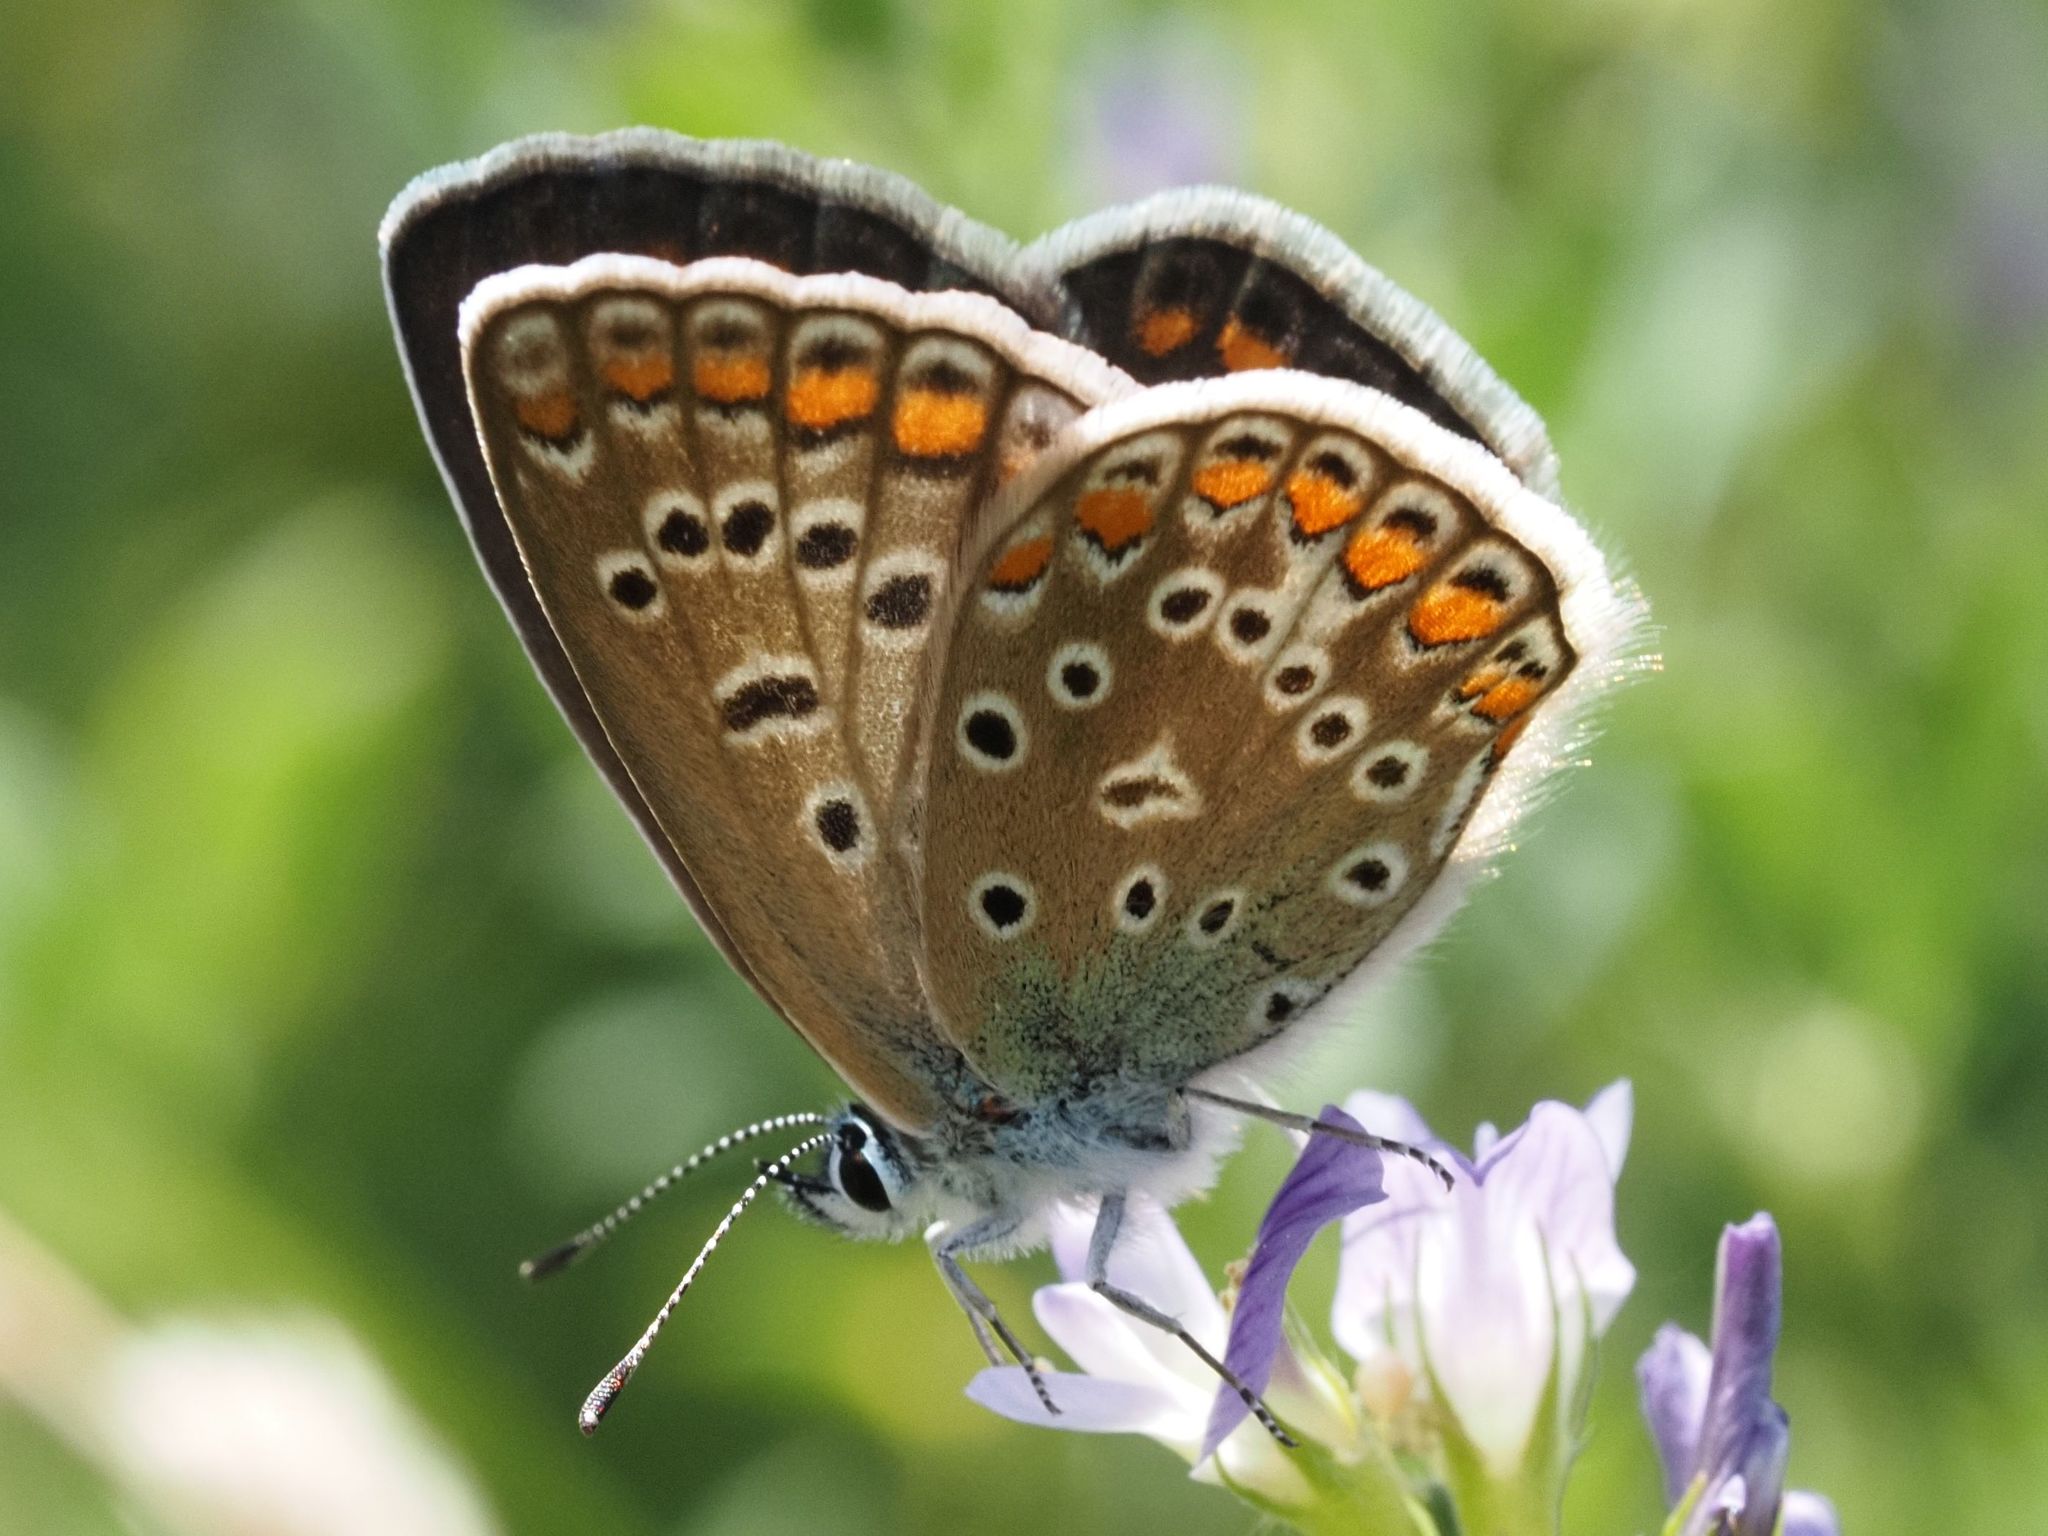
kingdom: Animalia
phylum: Arthropoda
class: Insecta
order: Lepidoptera
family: Lycaenidae
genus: Polyommatus
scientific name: Polyommatus icarus
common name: Common blue
